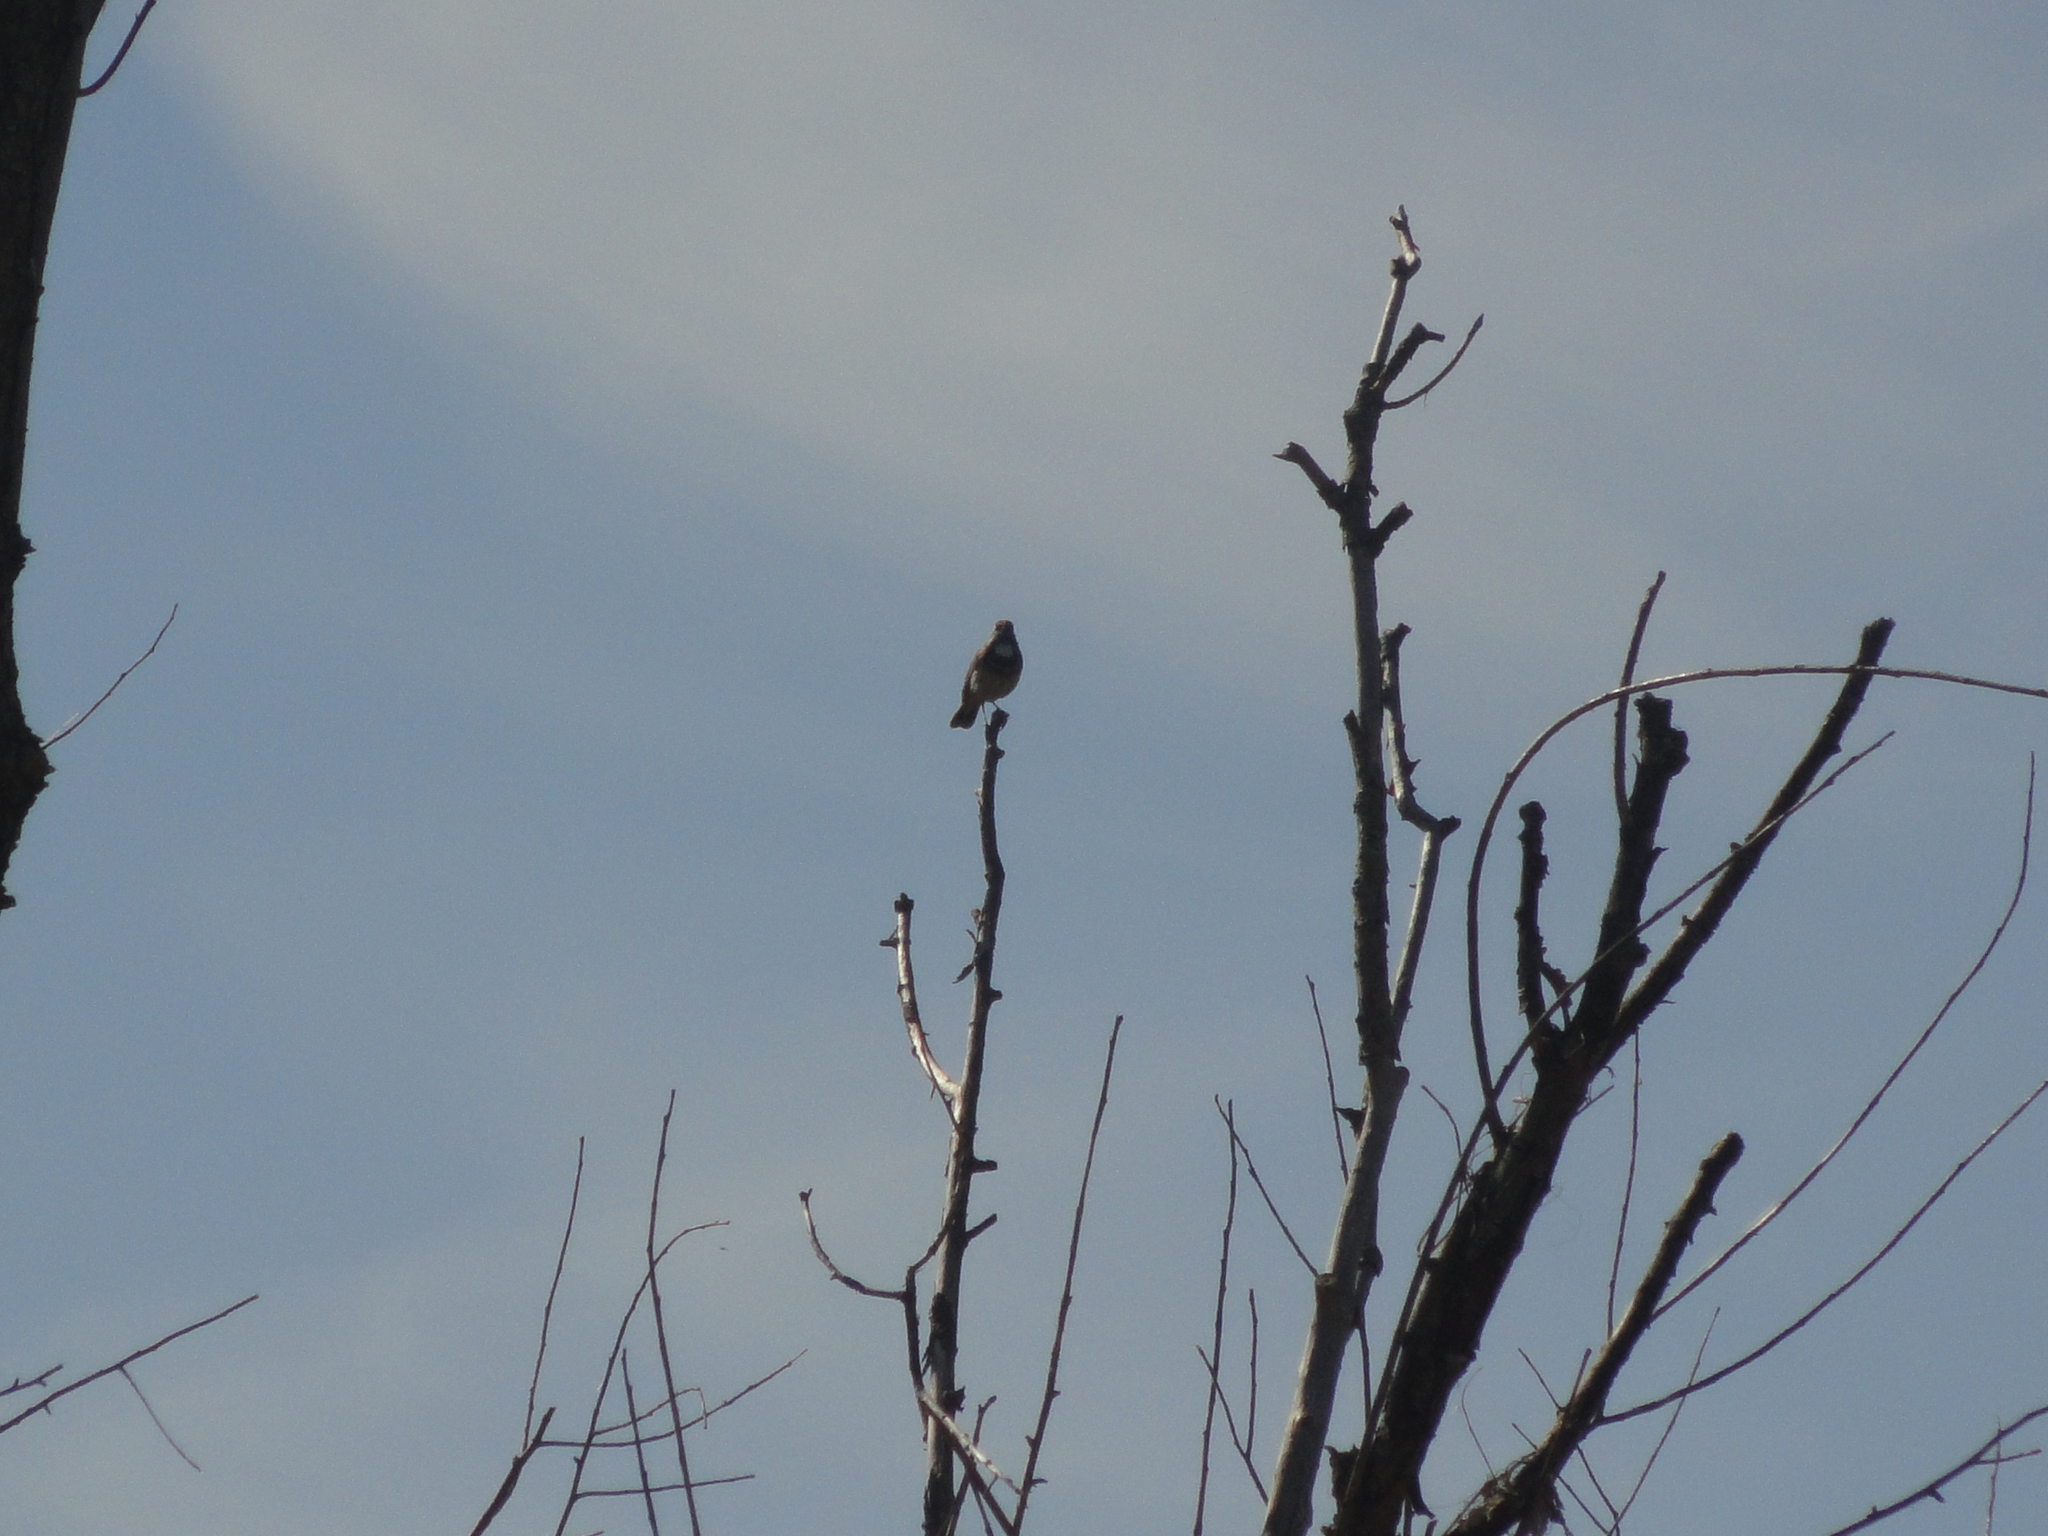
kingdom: Animalia
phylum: Chordata
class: Aves
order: Passeriformes
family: Muscicapidae
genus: Luscinia
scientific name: Luscinia svecica
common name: Bluethroat
